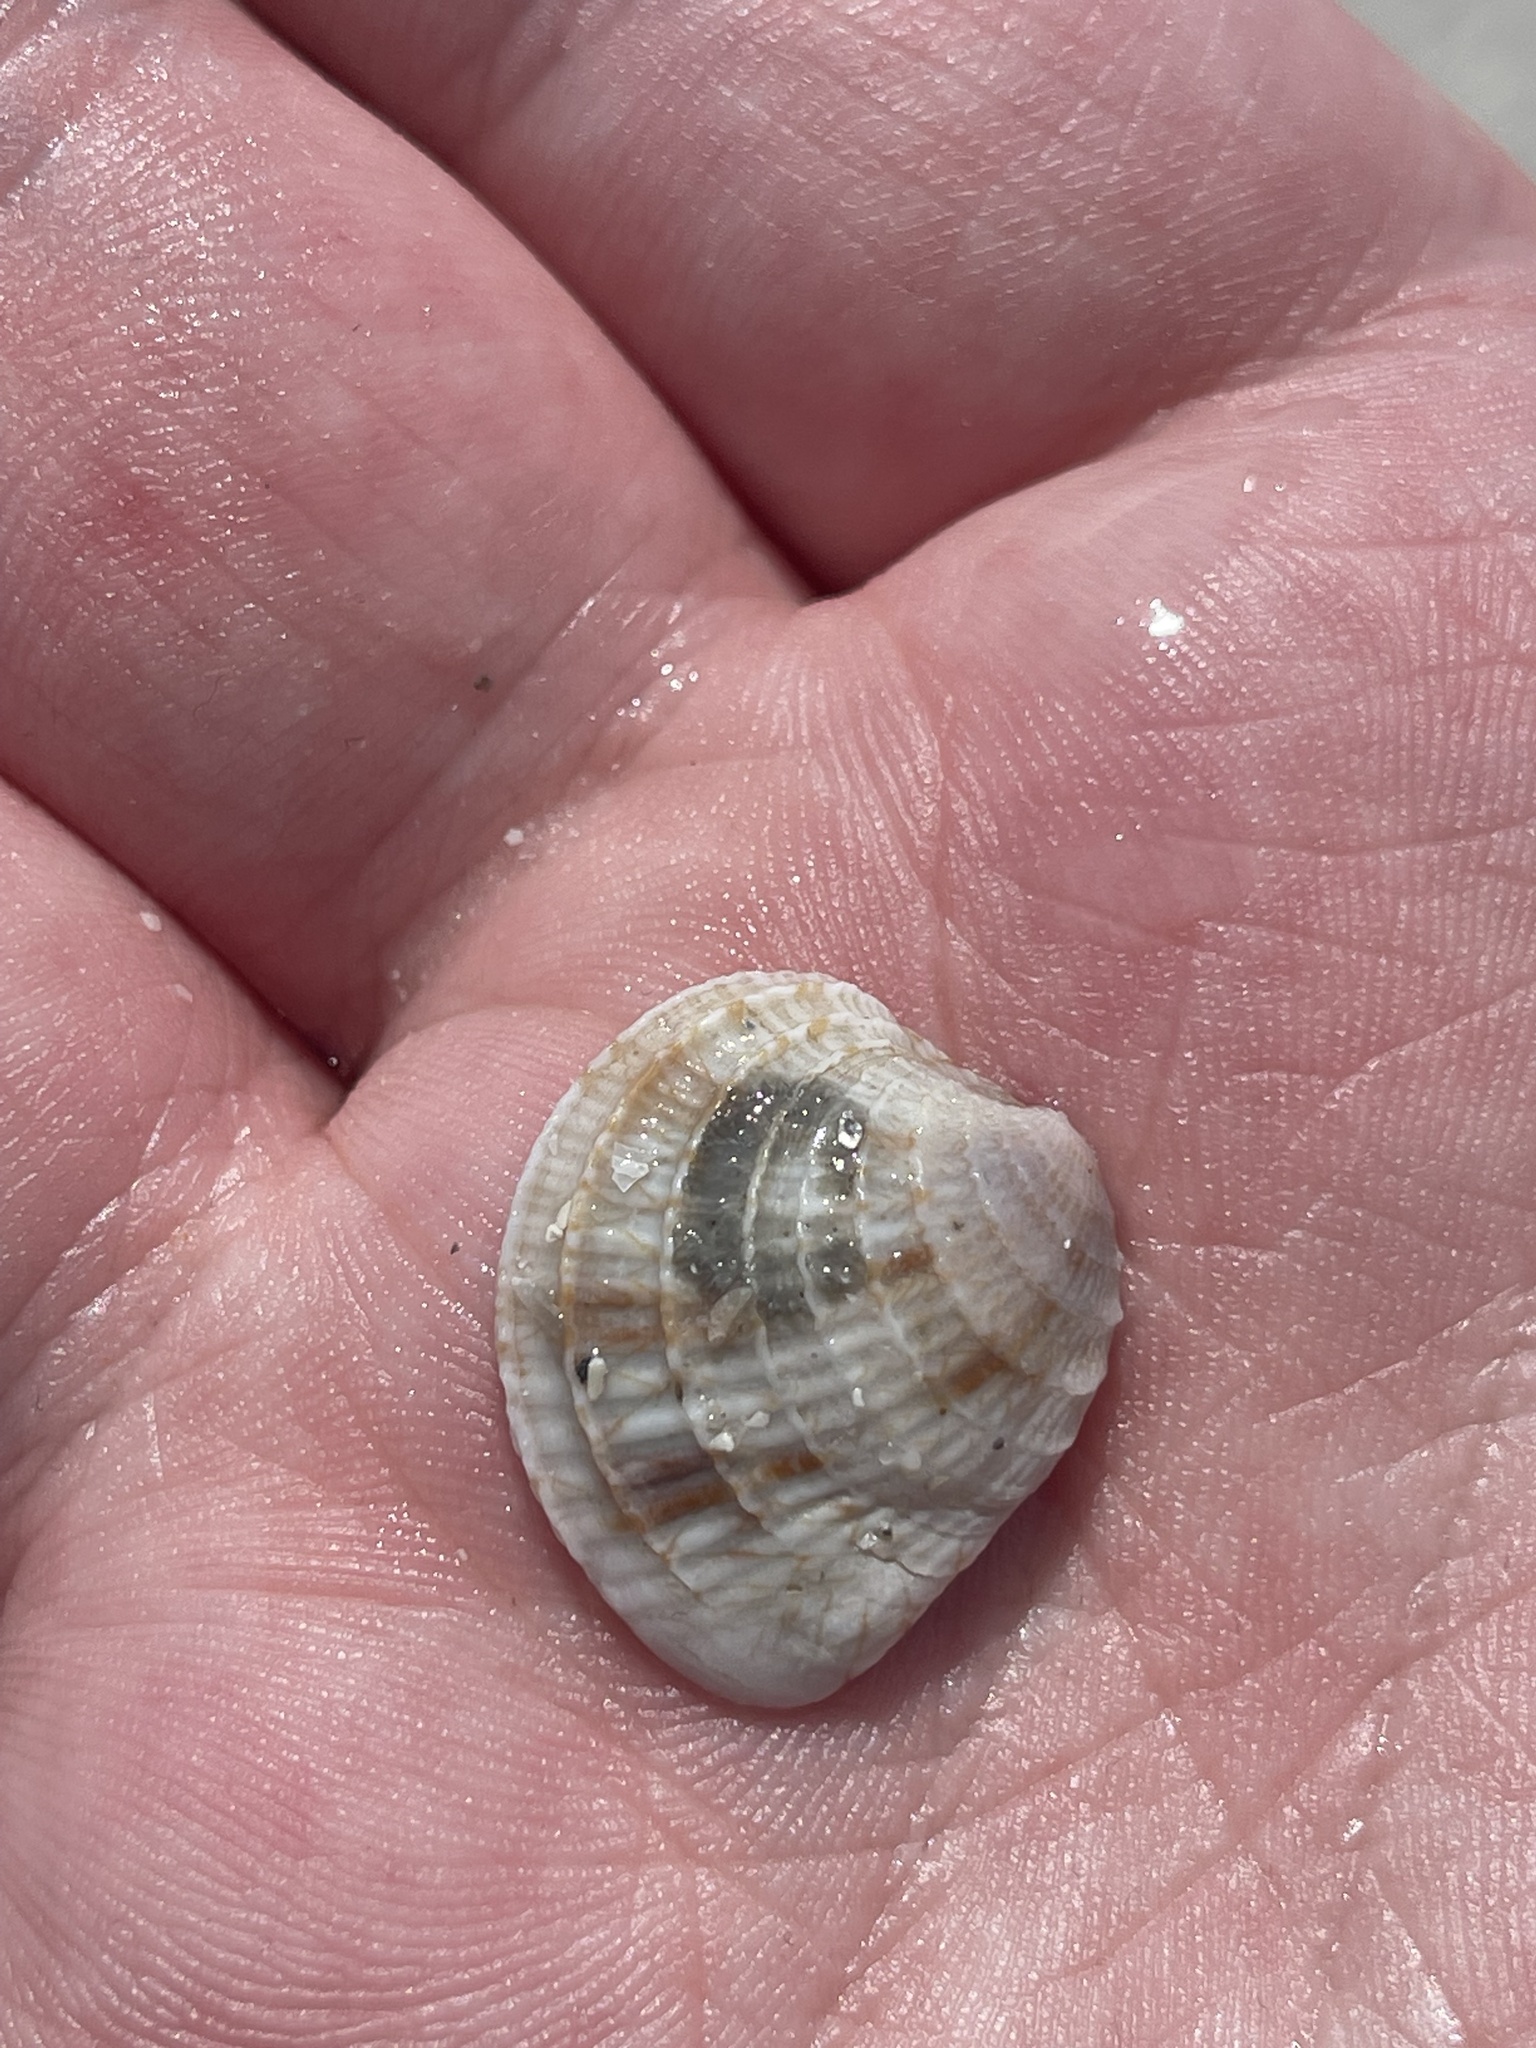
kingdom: Animalia
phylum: Mollusca
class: Bivalvia
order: Venerida
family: Veneridae
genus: Chione
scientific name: Chione elevata
